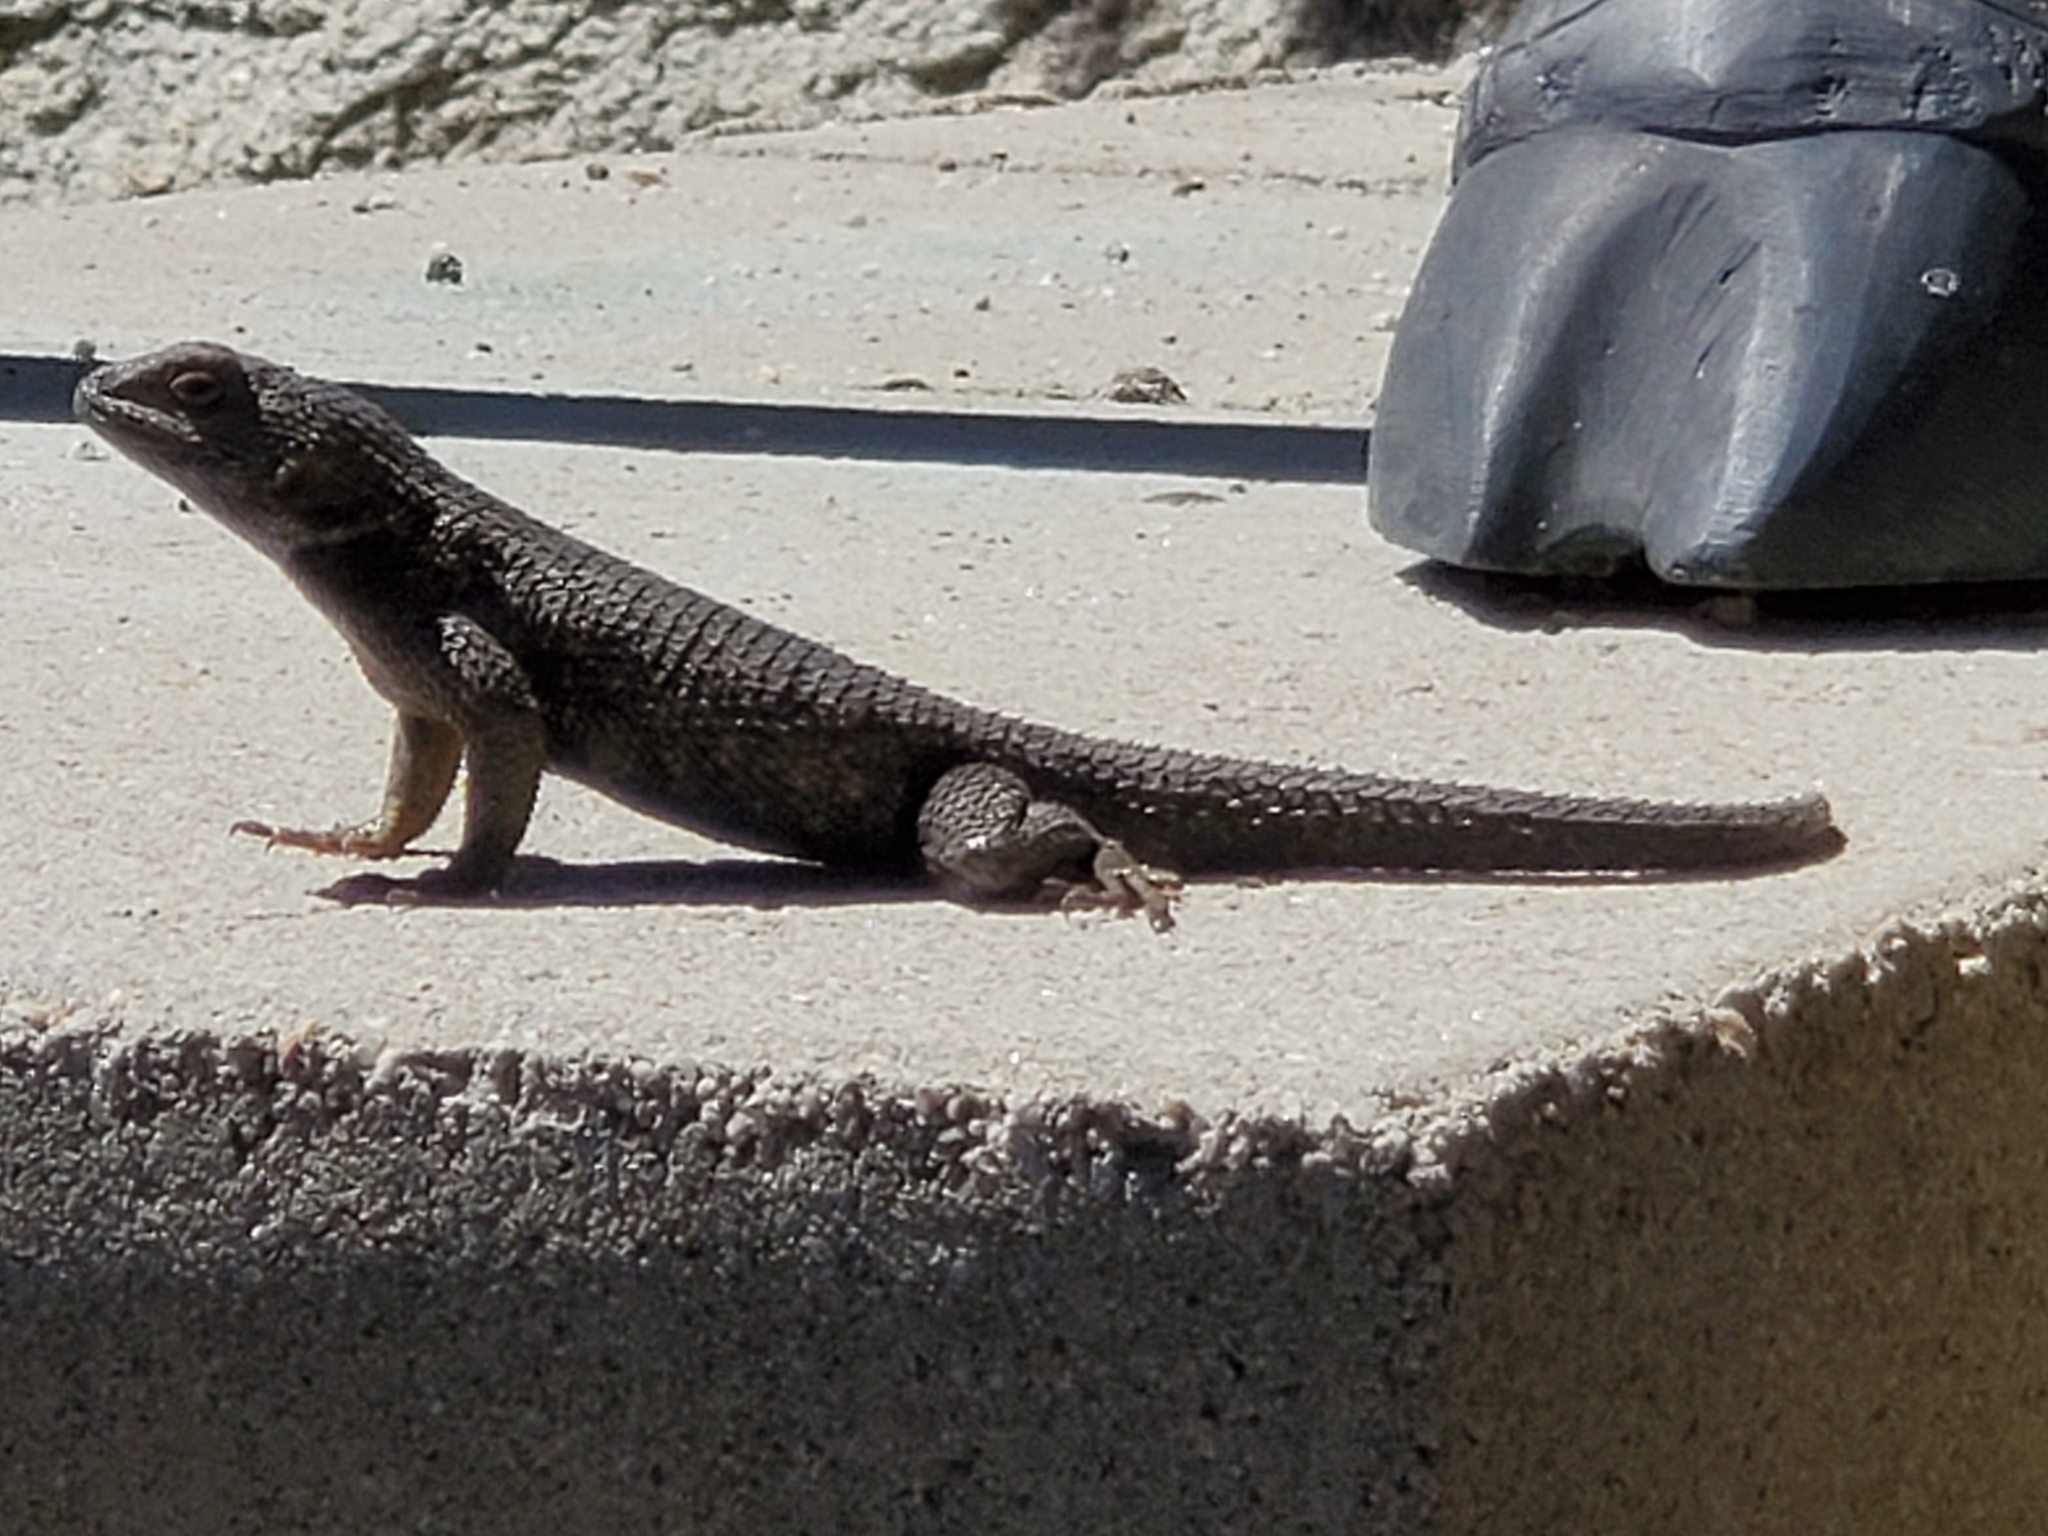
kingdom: Animalia
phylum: Chordata
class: Squamata
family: Phrynosomatidae
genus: Sceloporus
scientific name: Sceloporus occidentalis
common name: Western fence lizard
